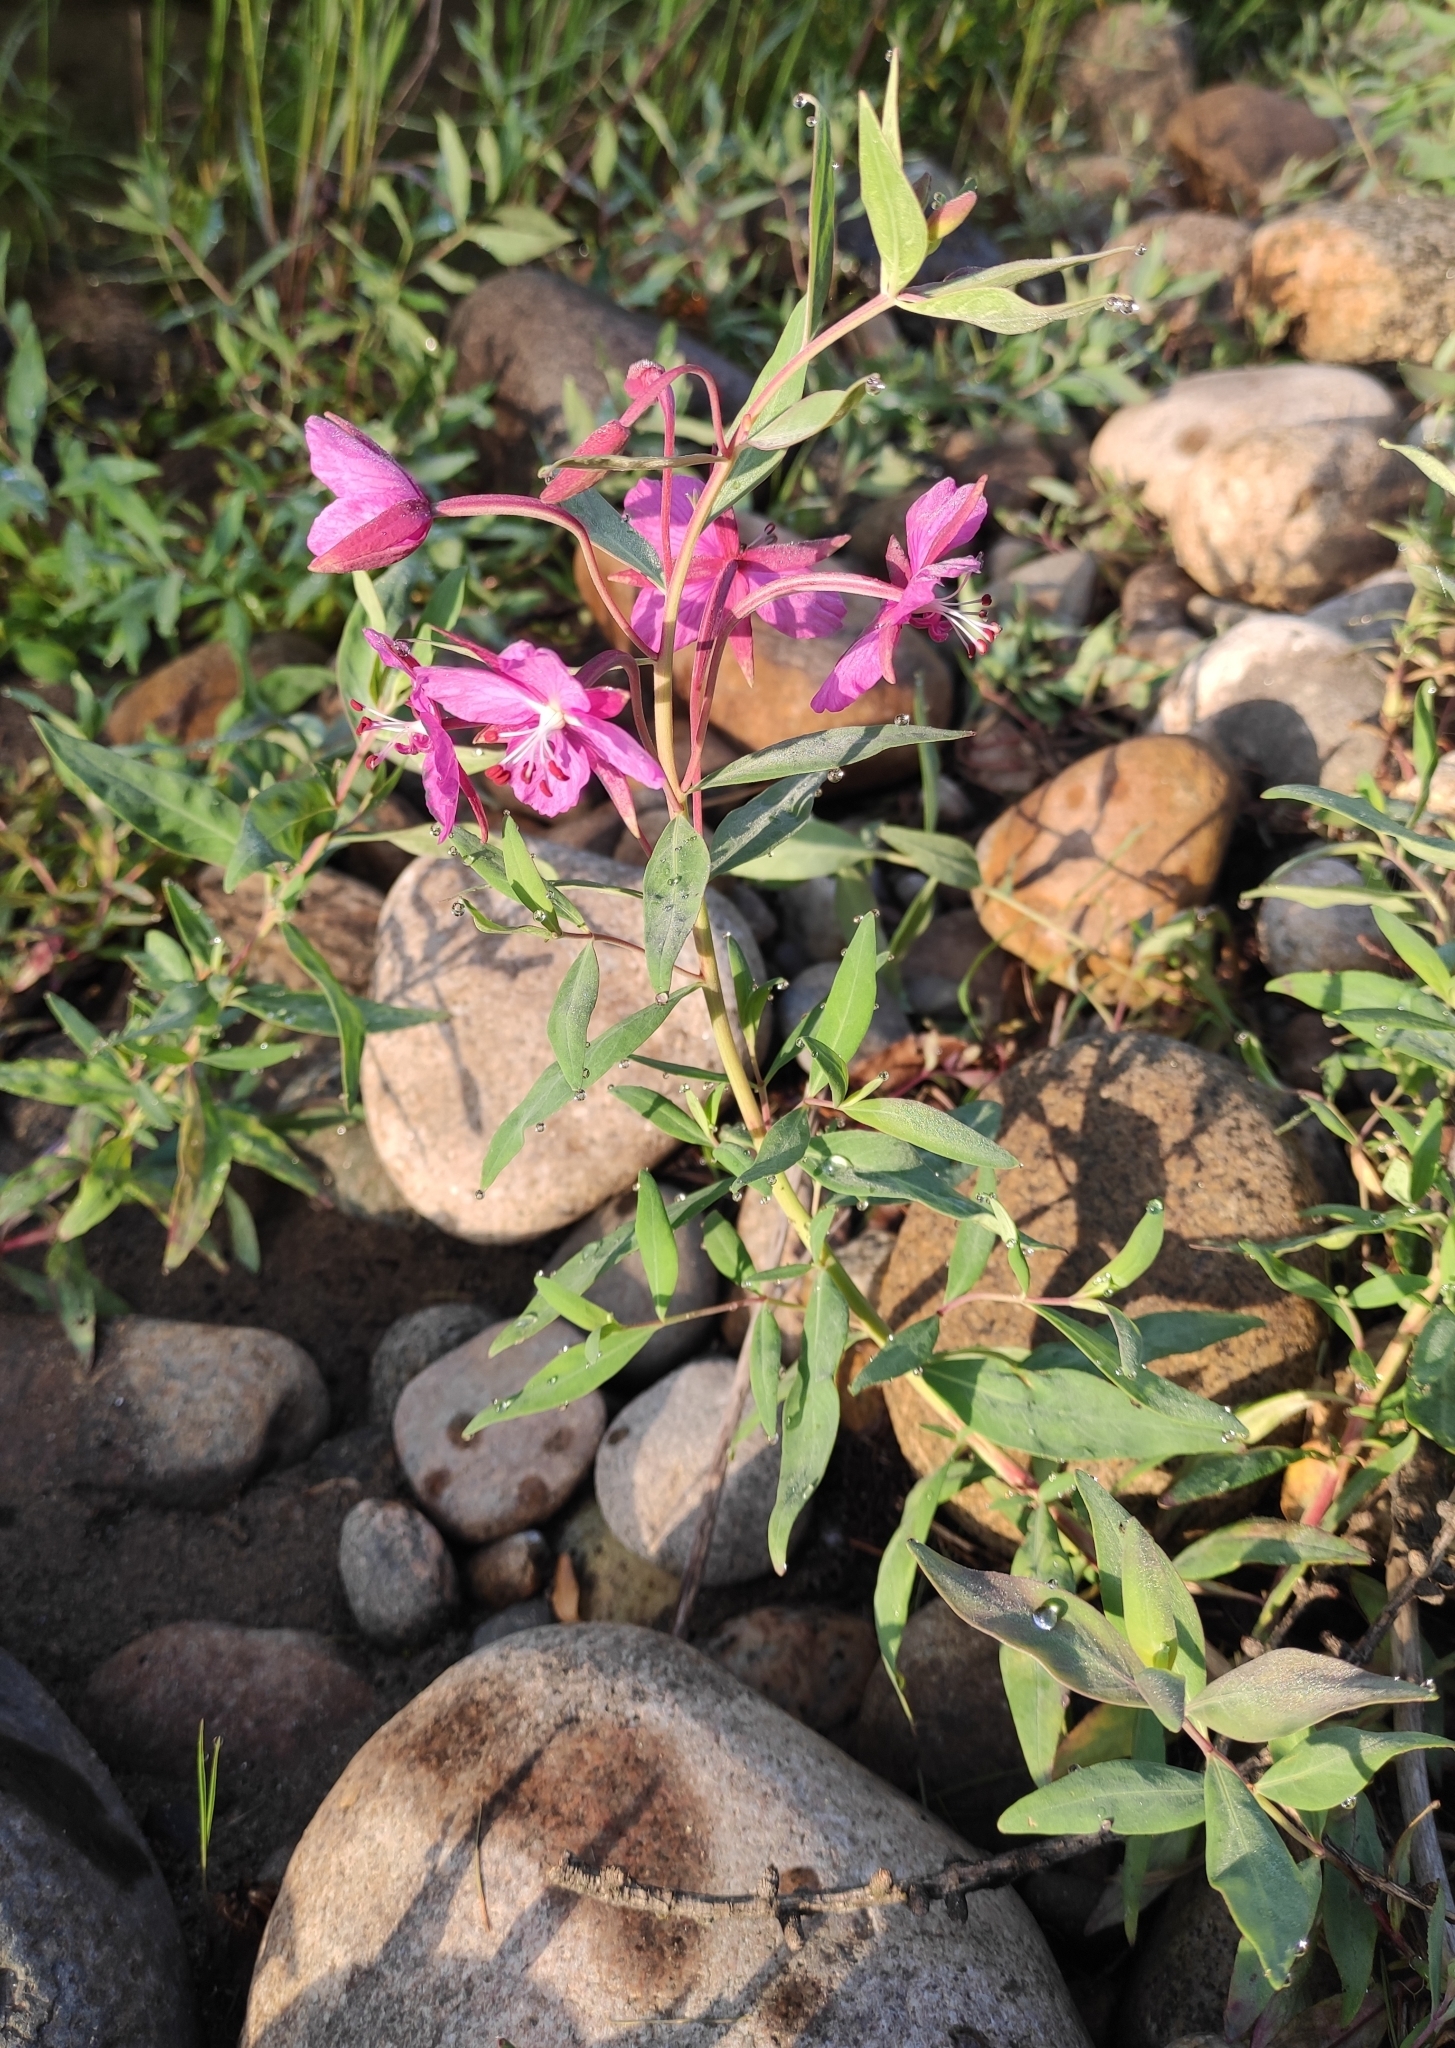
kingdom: Plantae
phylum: Tracheophyta
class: Magnoliopsida
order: Myrtales
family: Onagraceae
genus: Chamaenerion
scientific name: Chamaenerion latifolium
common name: Dwarf fireweed
